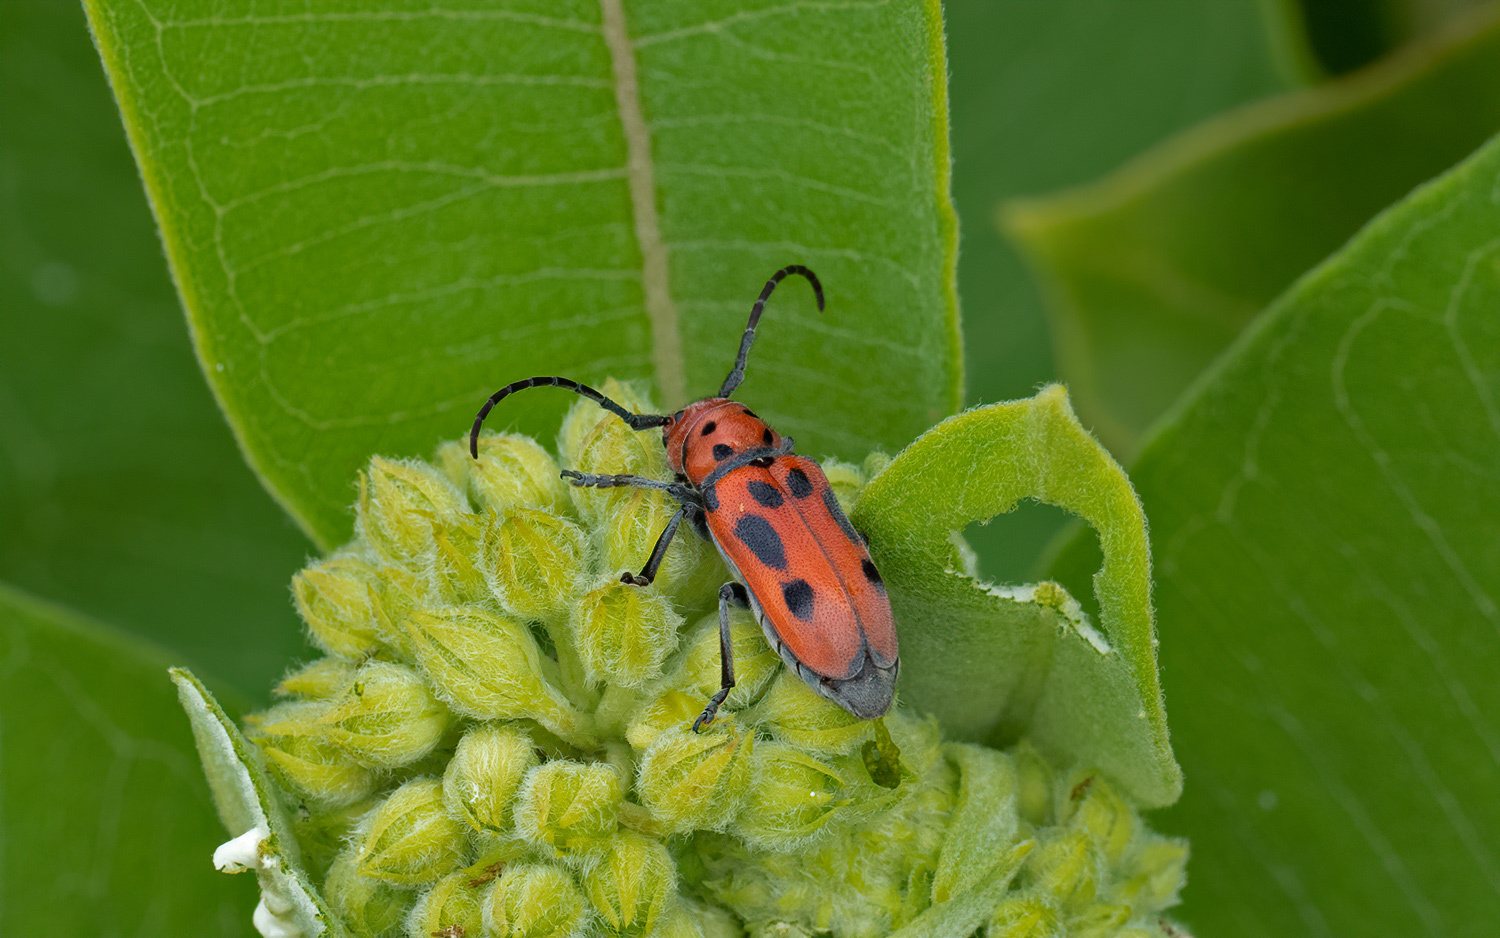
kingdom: Animalia
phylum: Arthropoda
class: Insecta
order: Coleoptera
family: Cerambycidae
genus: Tetraopes
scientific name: Tetraopes tetrophthalmus
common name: Red milkweed beetle
